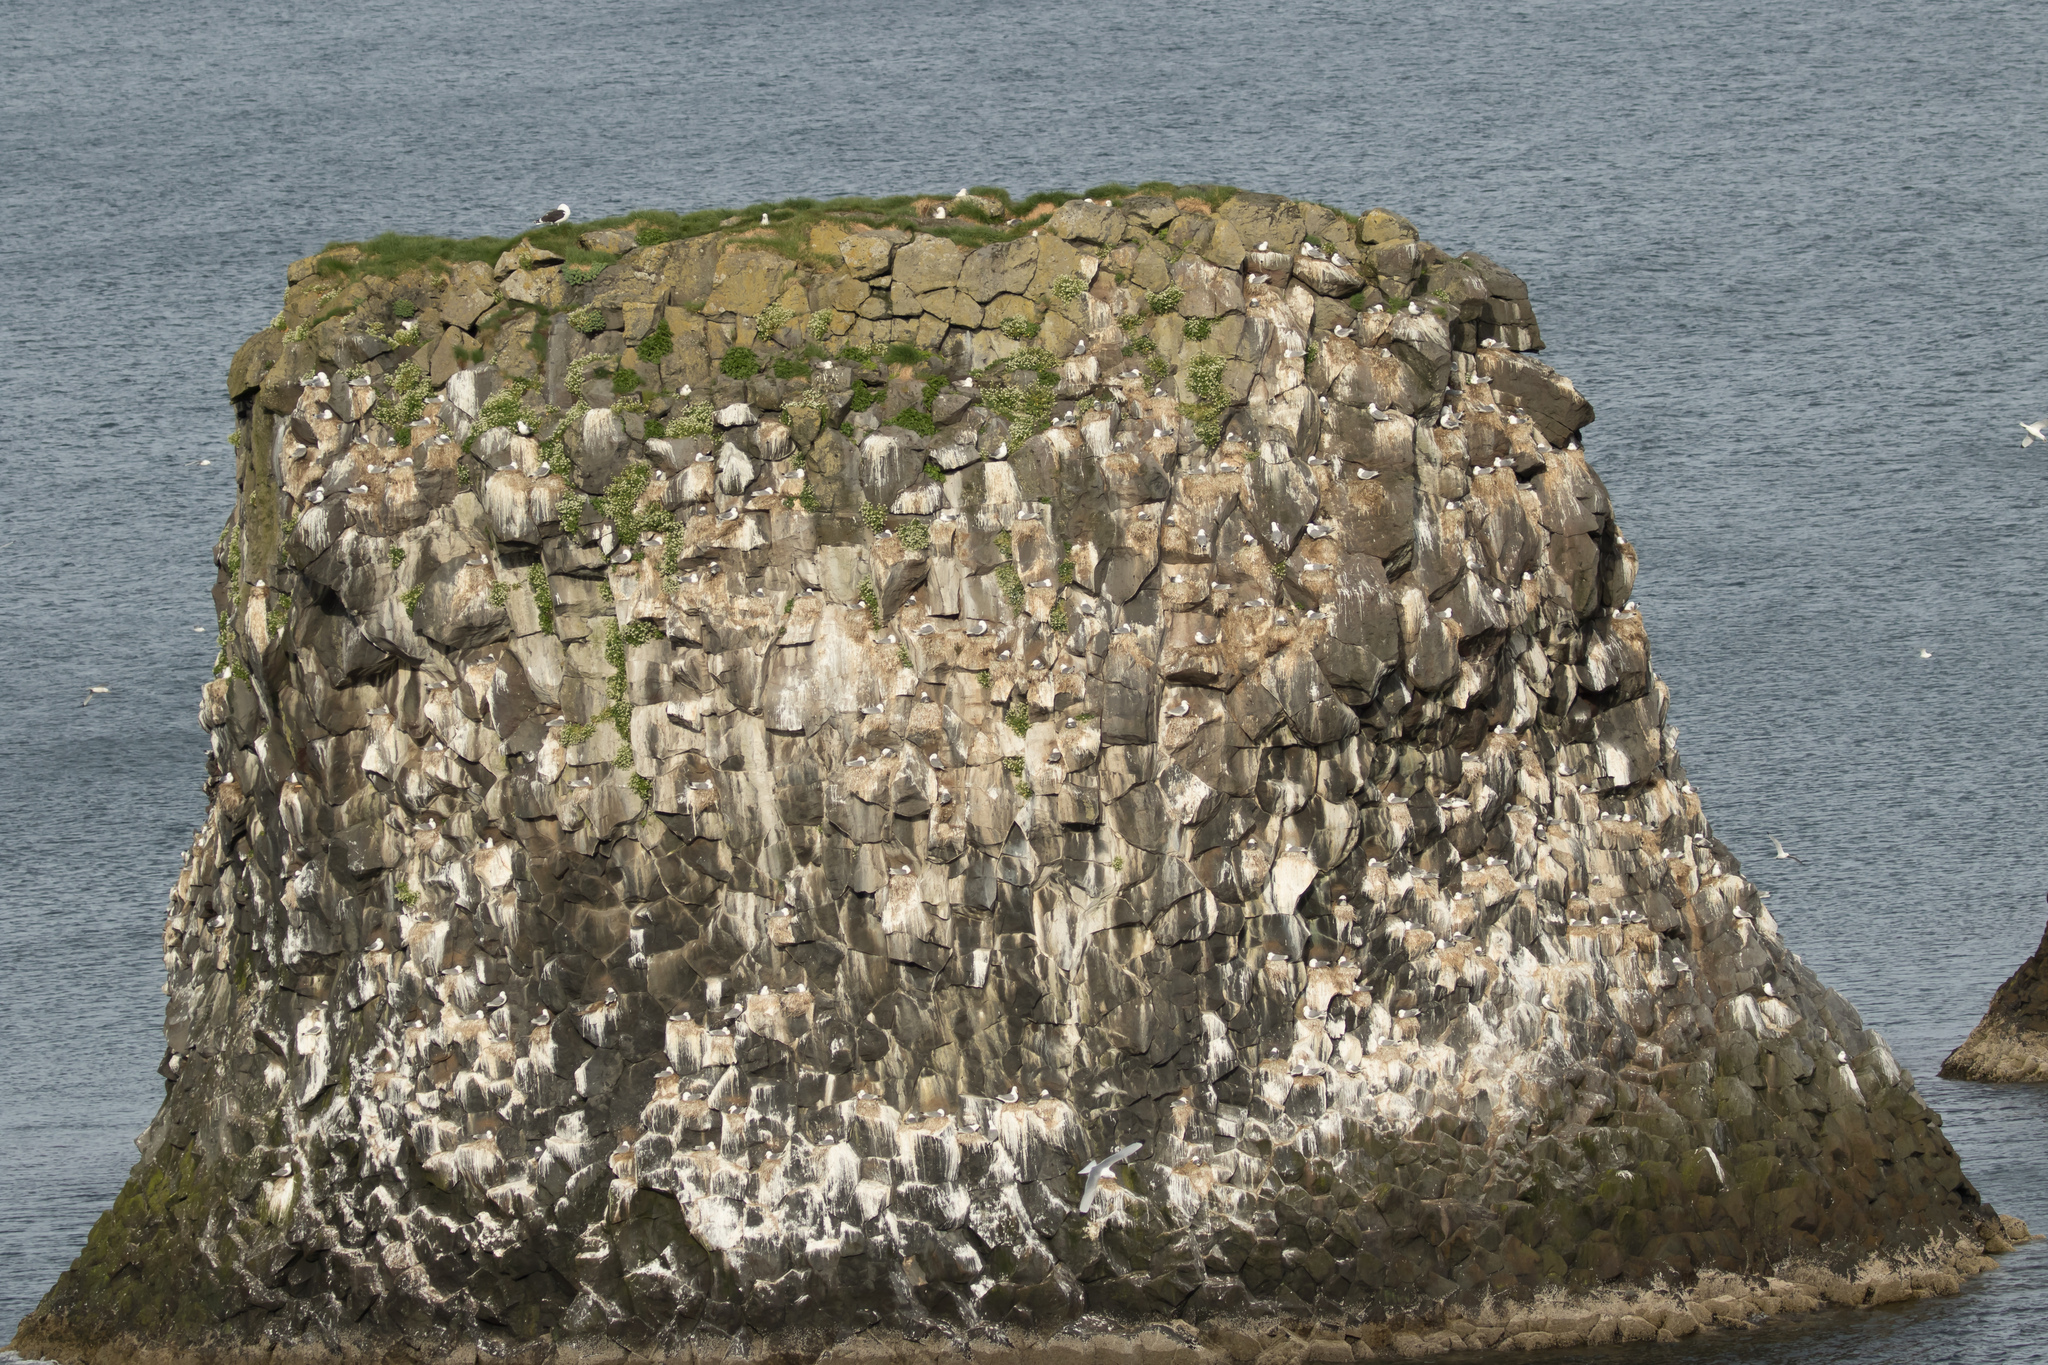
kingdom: Animalia
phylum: Chordata
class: Aves
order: Charadriiformes
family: Laridae
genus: Larus
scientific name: Larus marinus
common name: Great black-backed gull
